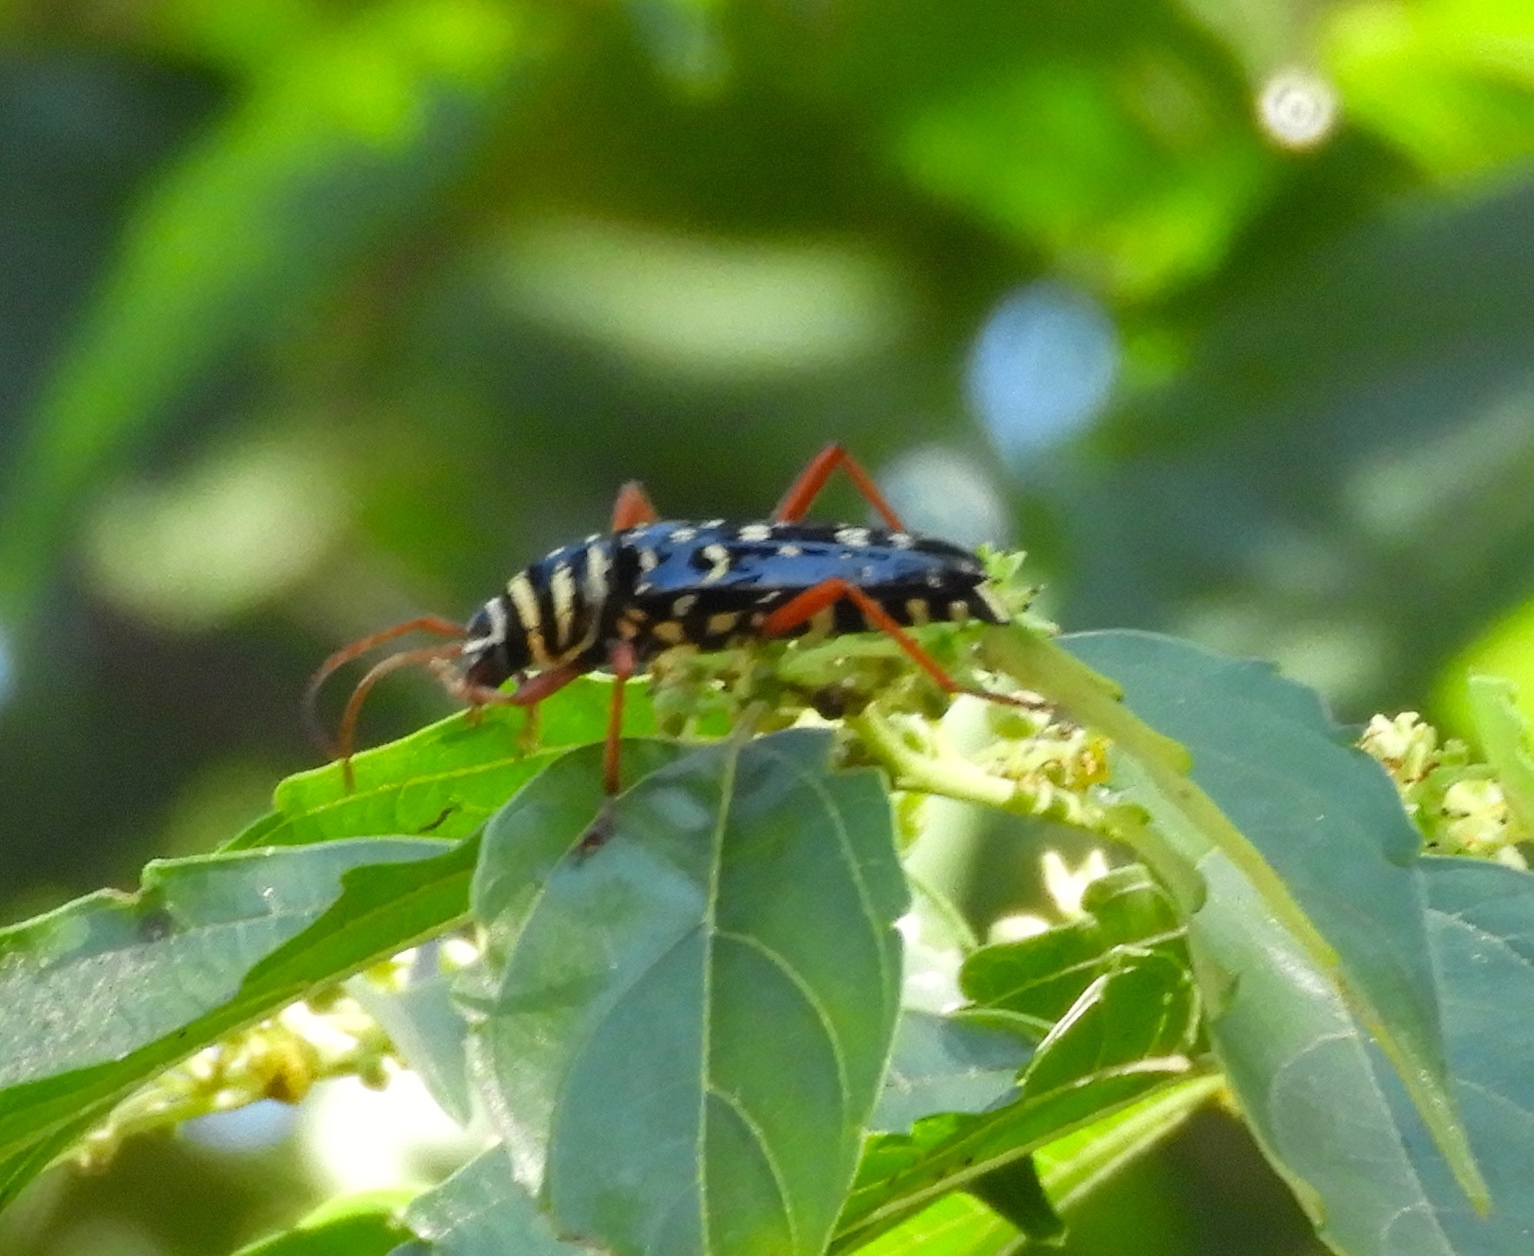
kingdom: Animalia
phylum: Arthropoda
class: Insecta
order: Coleoptera
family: Cerambycidae
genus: Placosternus
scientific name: Placosternus difficilis
